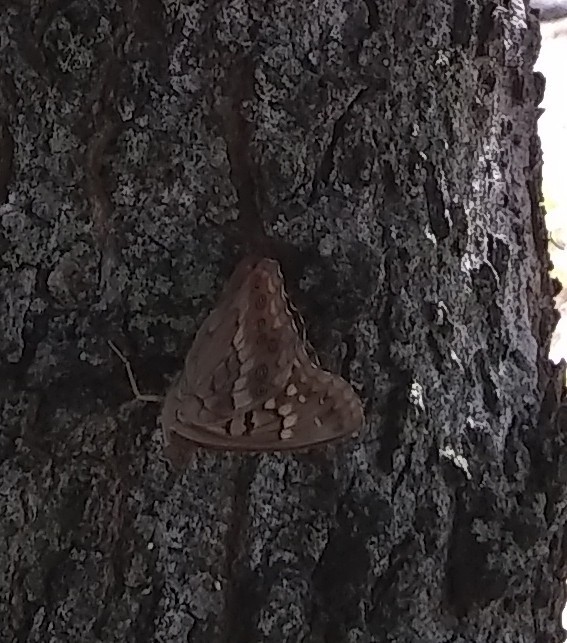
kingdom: Animalia
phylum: Arthropoda
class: Insecta
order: Lepidoptera
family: Nymphalidae
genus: Asterocampa
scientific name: Asterocampa clyton
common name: Tawny emperor
